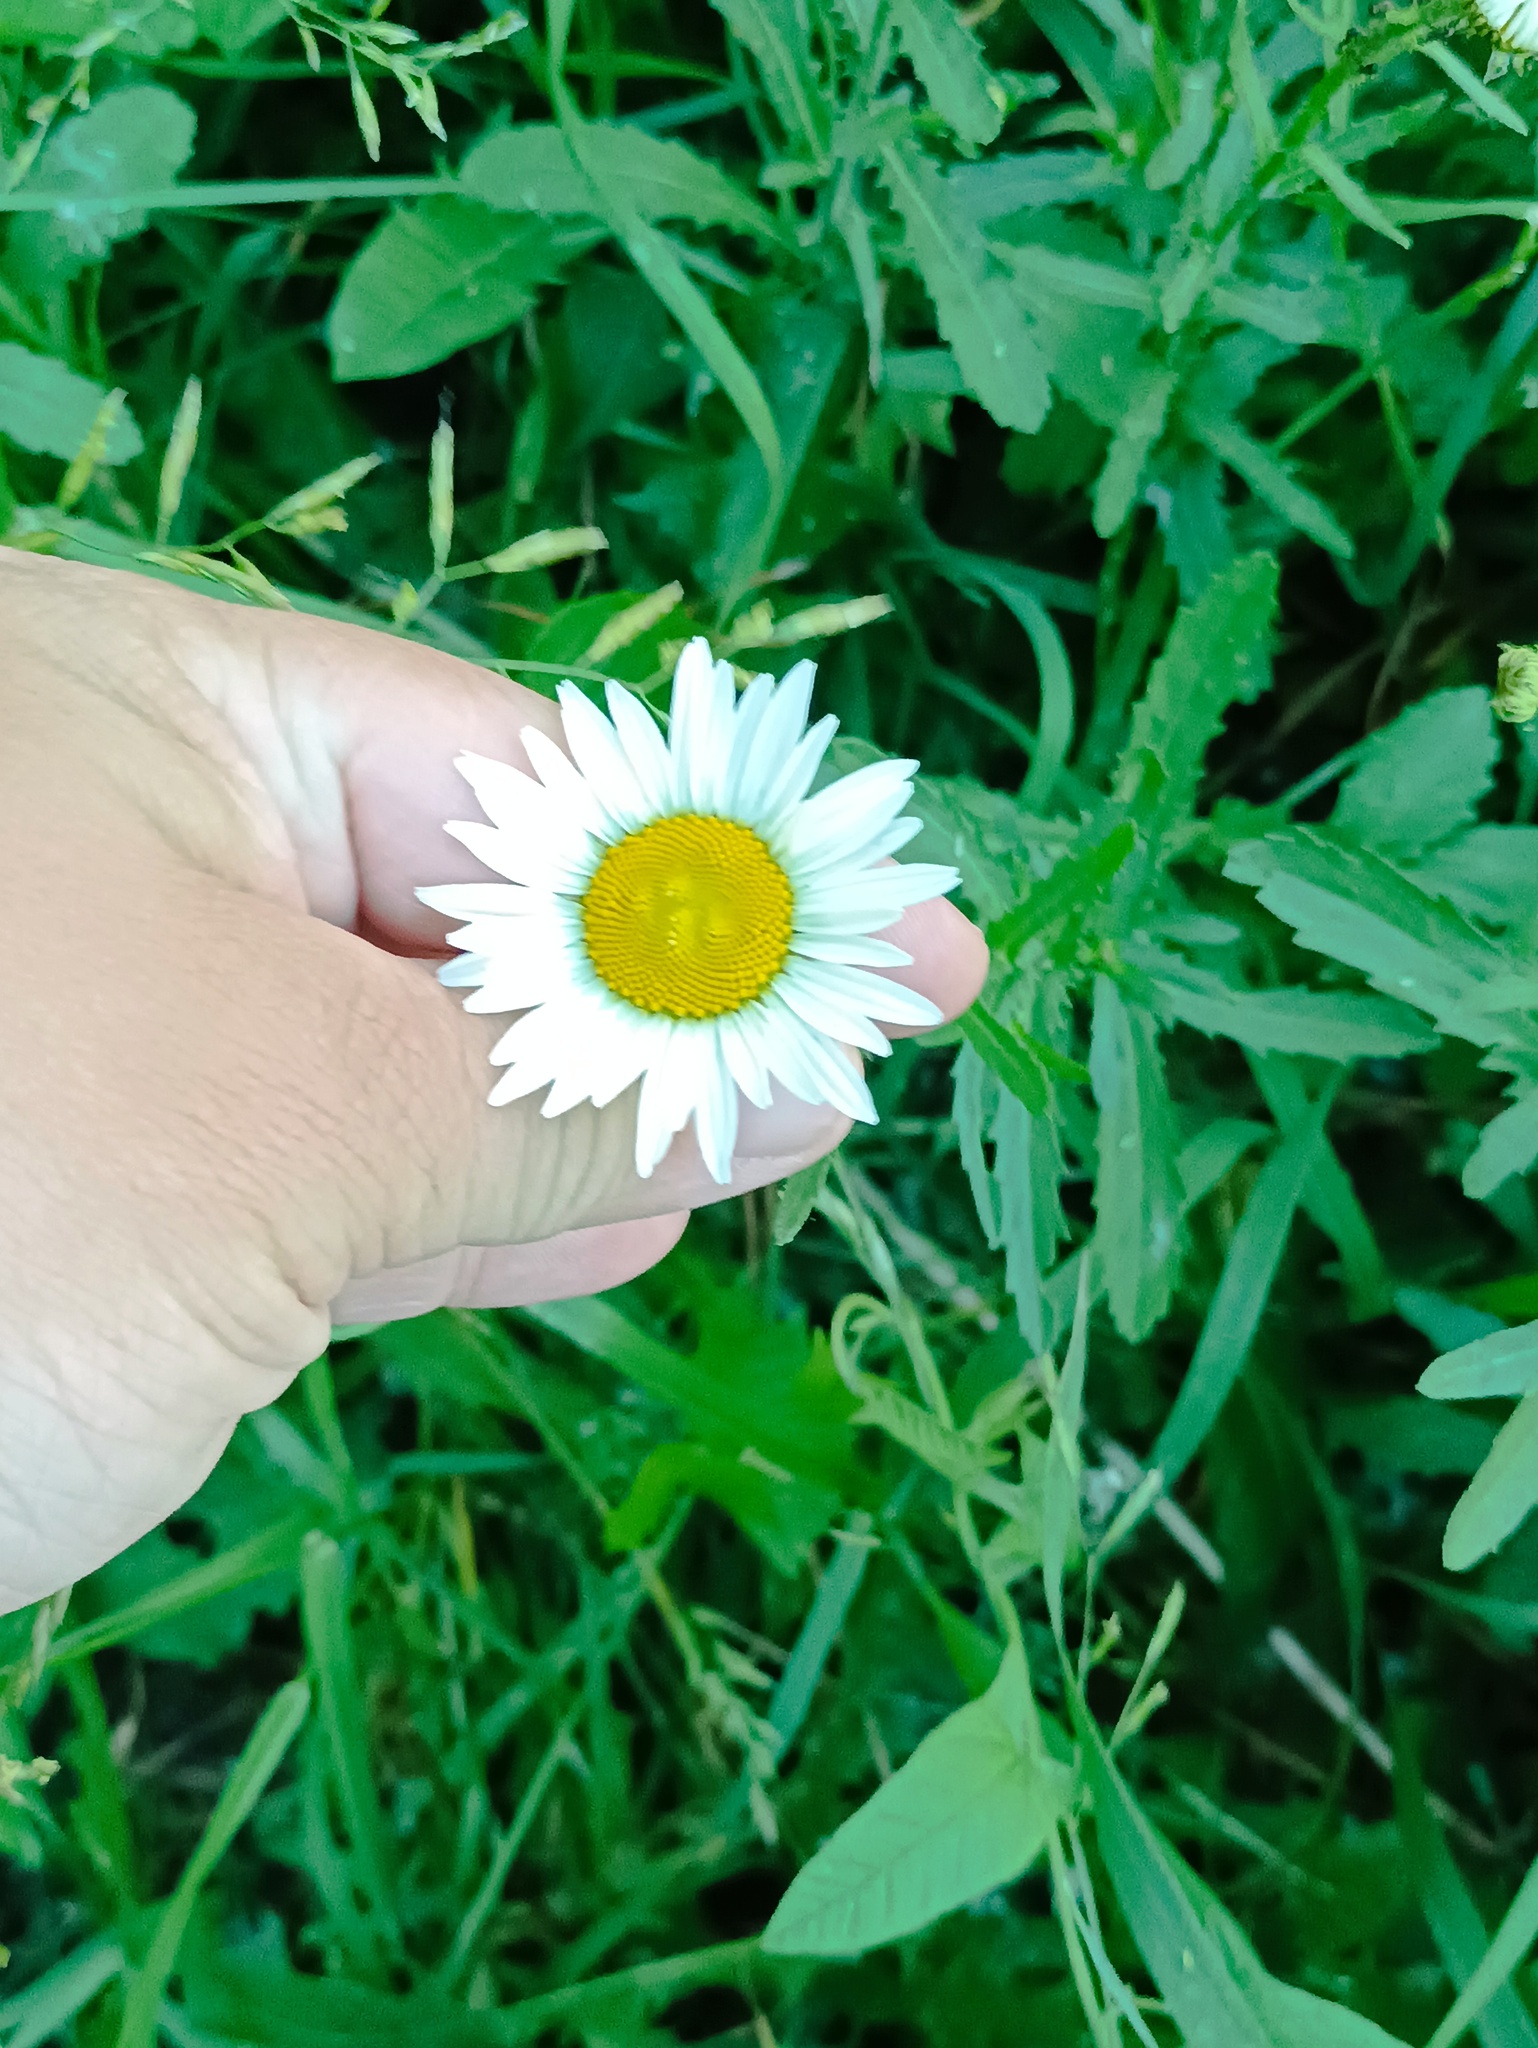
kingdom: Plantae
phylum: Tracheophyta
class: Magnoliopsida
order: Asterales
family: Asteraceae
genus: Leucanthemum
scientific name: Leucanthemum vulgare
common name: Oxeye daisy
